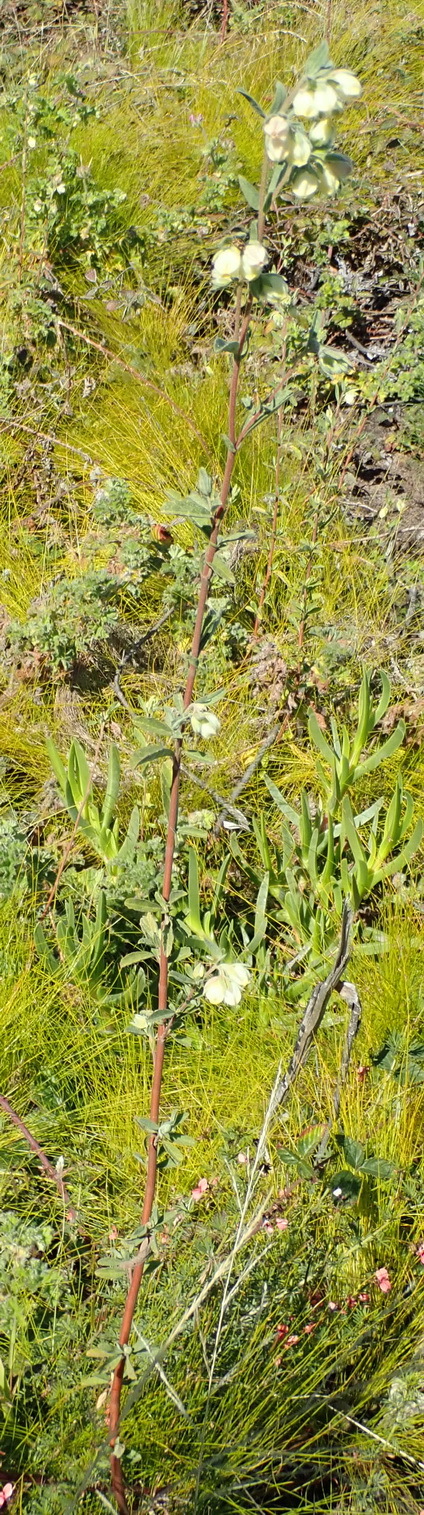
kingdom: Plantae
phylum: Tracheophyta
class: Magnoliopsida
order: Malvales
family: Malvaceae
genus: Hermannia
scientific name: Hermannia hyssopifolia
